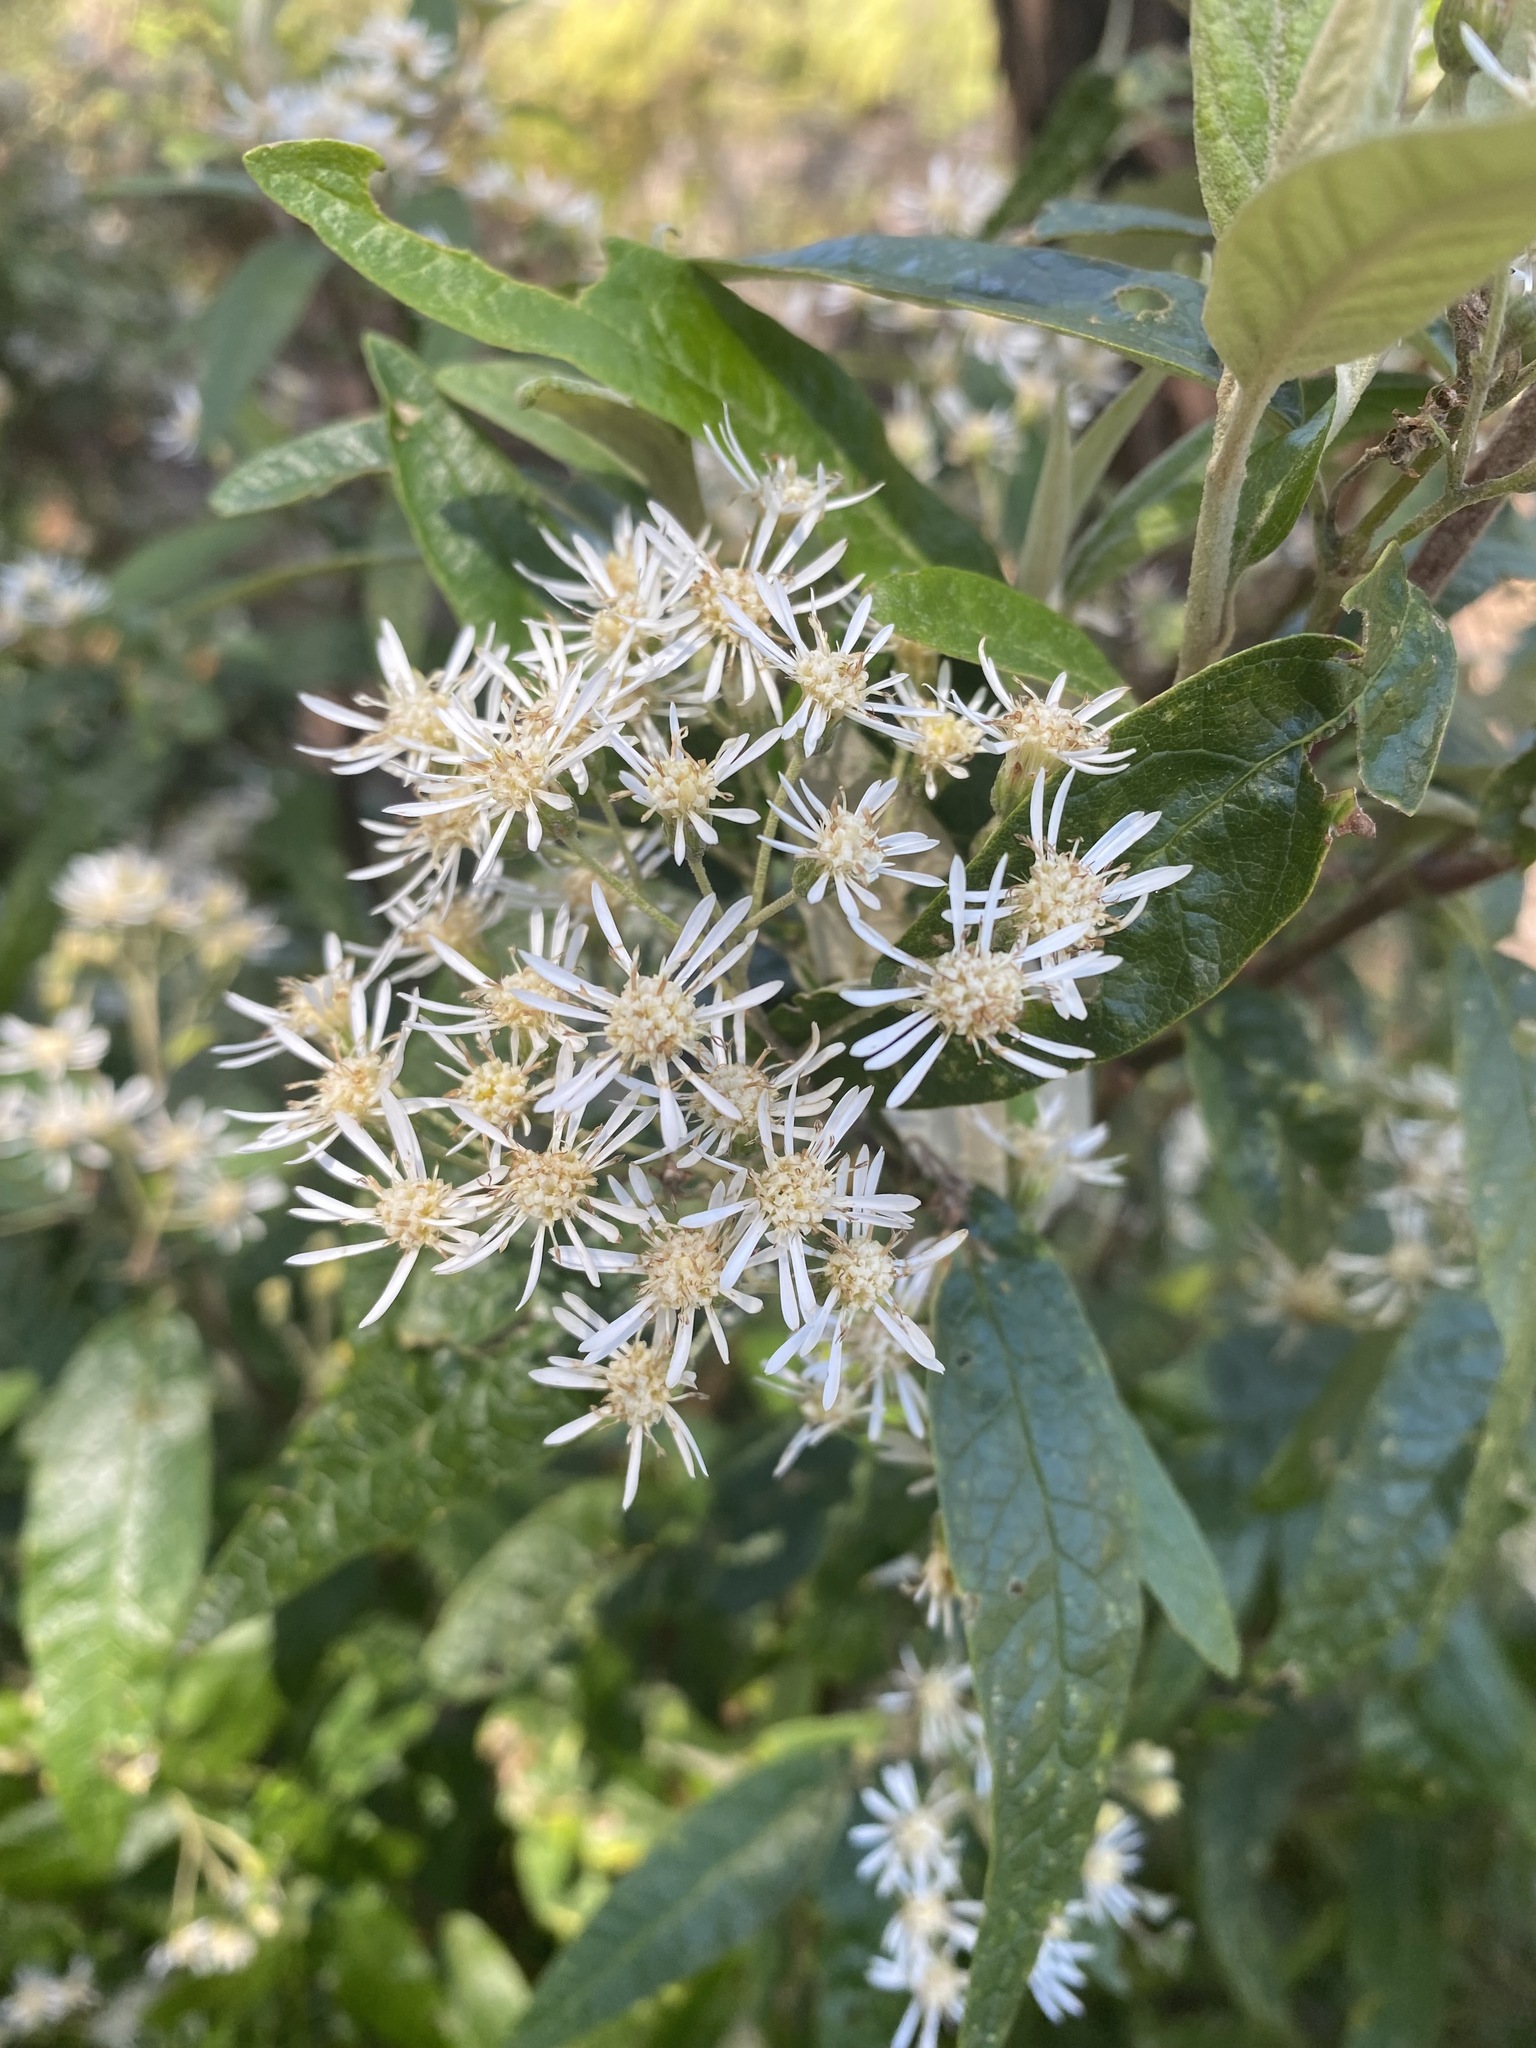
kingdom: Plantae
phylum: Tracheophyta
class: Magnoliopsida
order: Asterales
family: Asteraceae
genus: Olearia
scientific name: Olearia lirata
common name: Dusty daisybush
